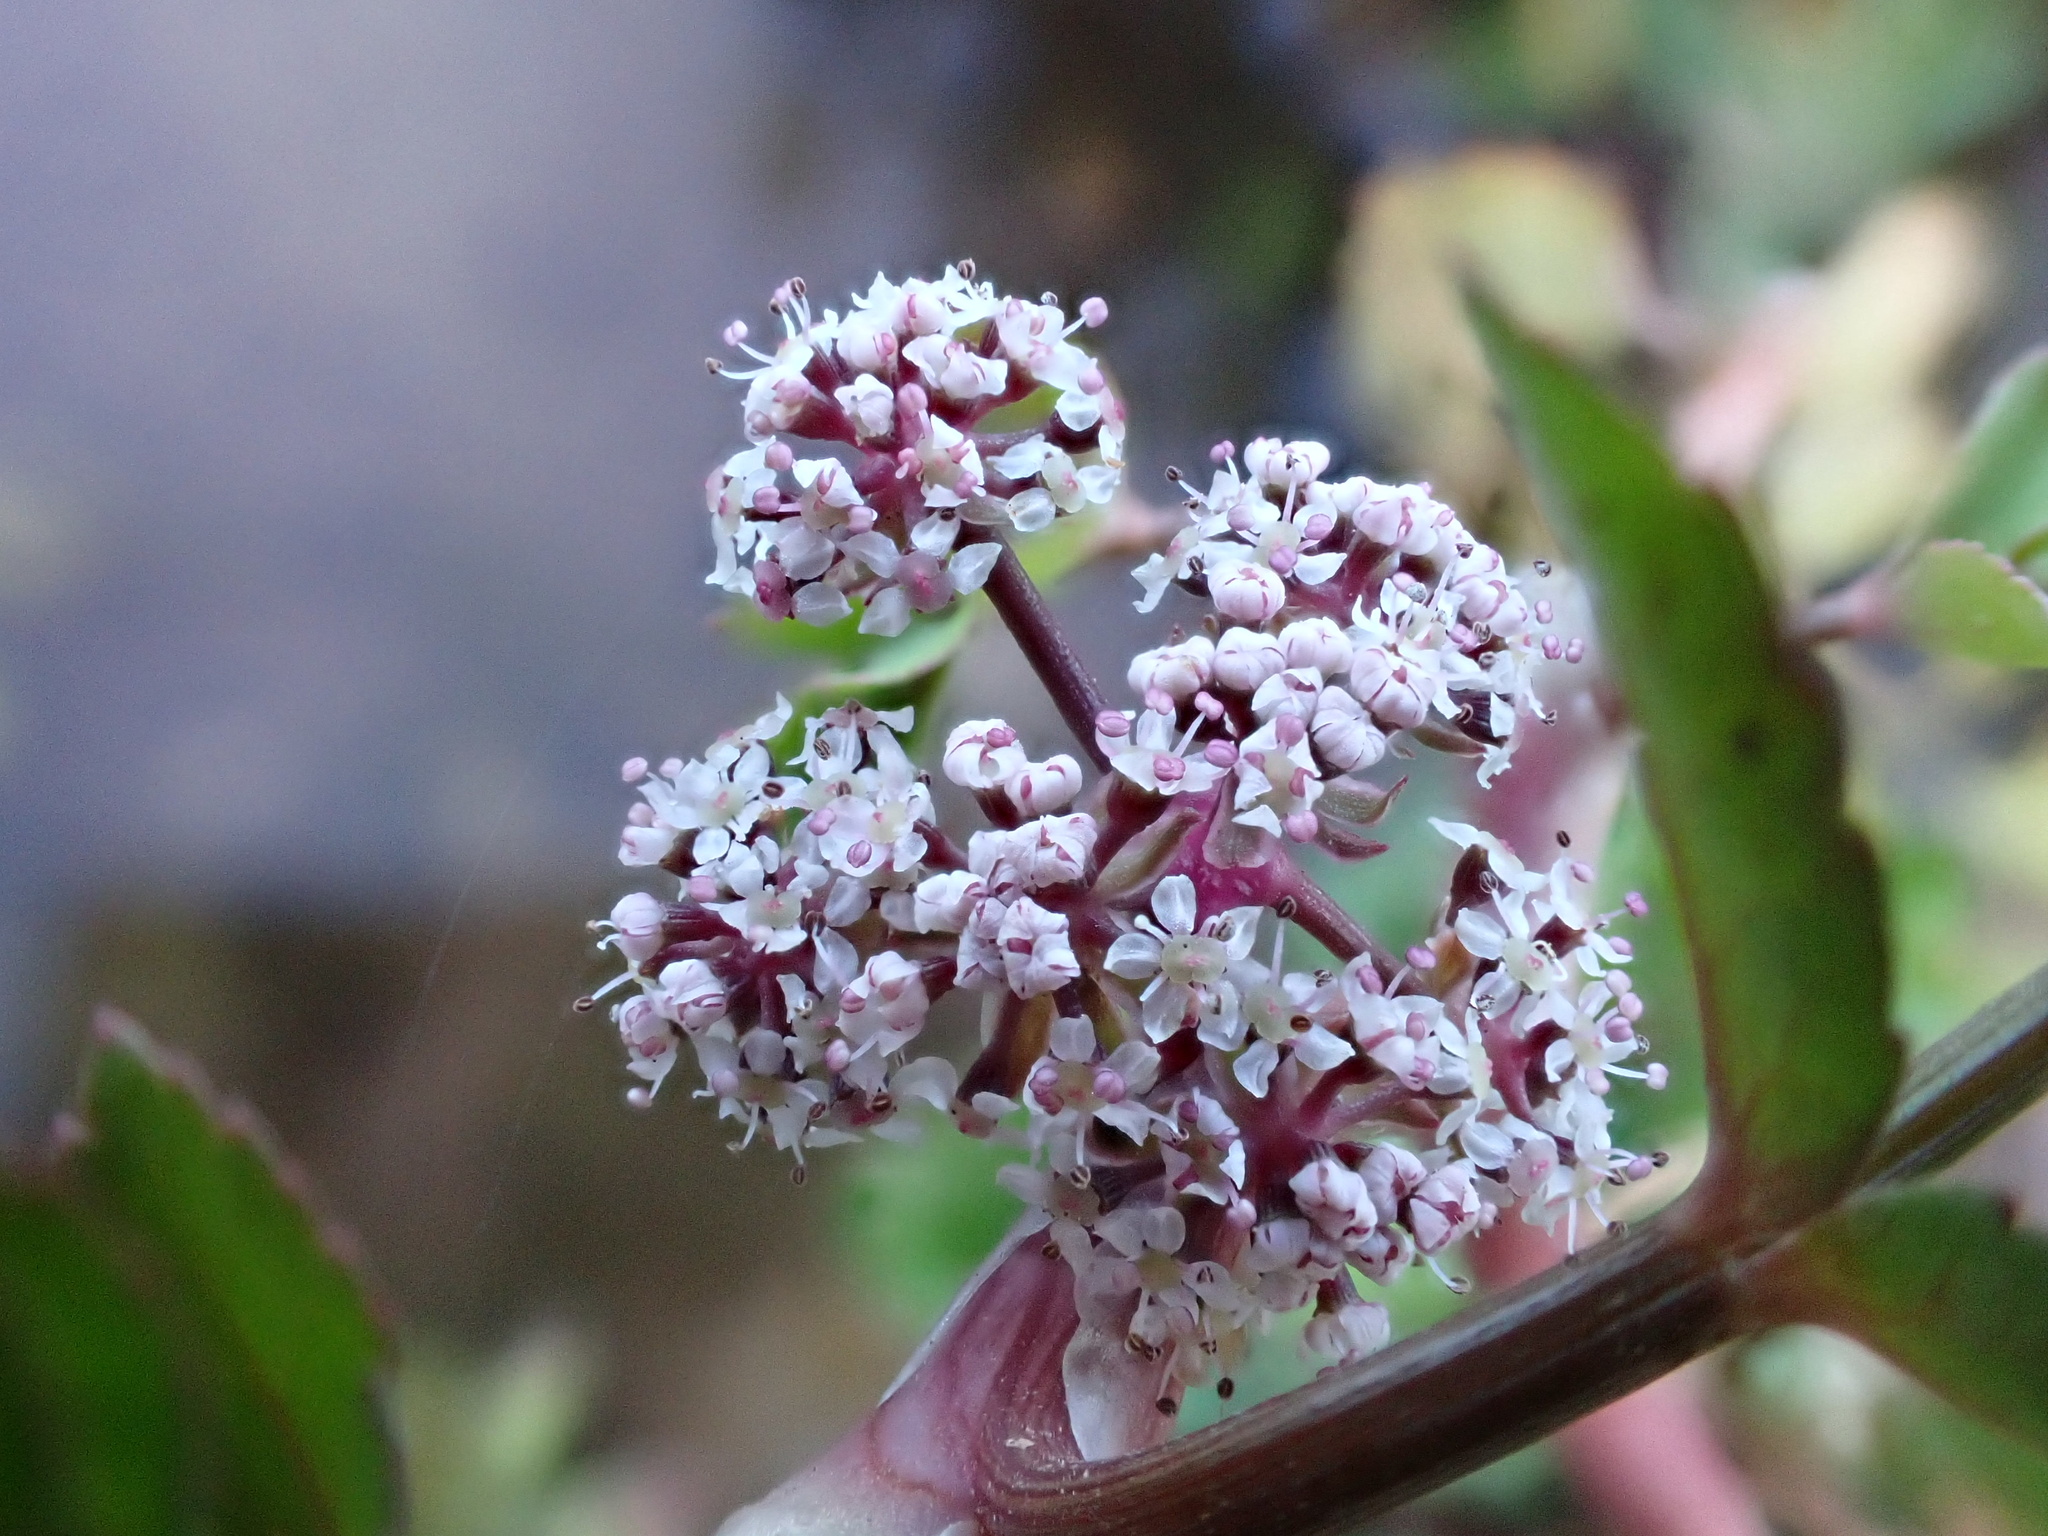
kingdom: Plantae
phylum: Tracheophyta
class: Magnoliopsida
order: Apiales
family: Apiaceae
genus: Helosciadium
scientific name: Helosciadium nodiflorum
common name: Fool's-watercress
